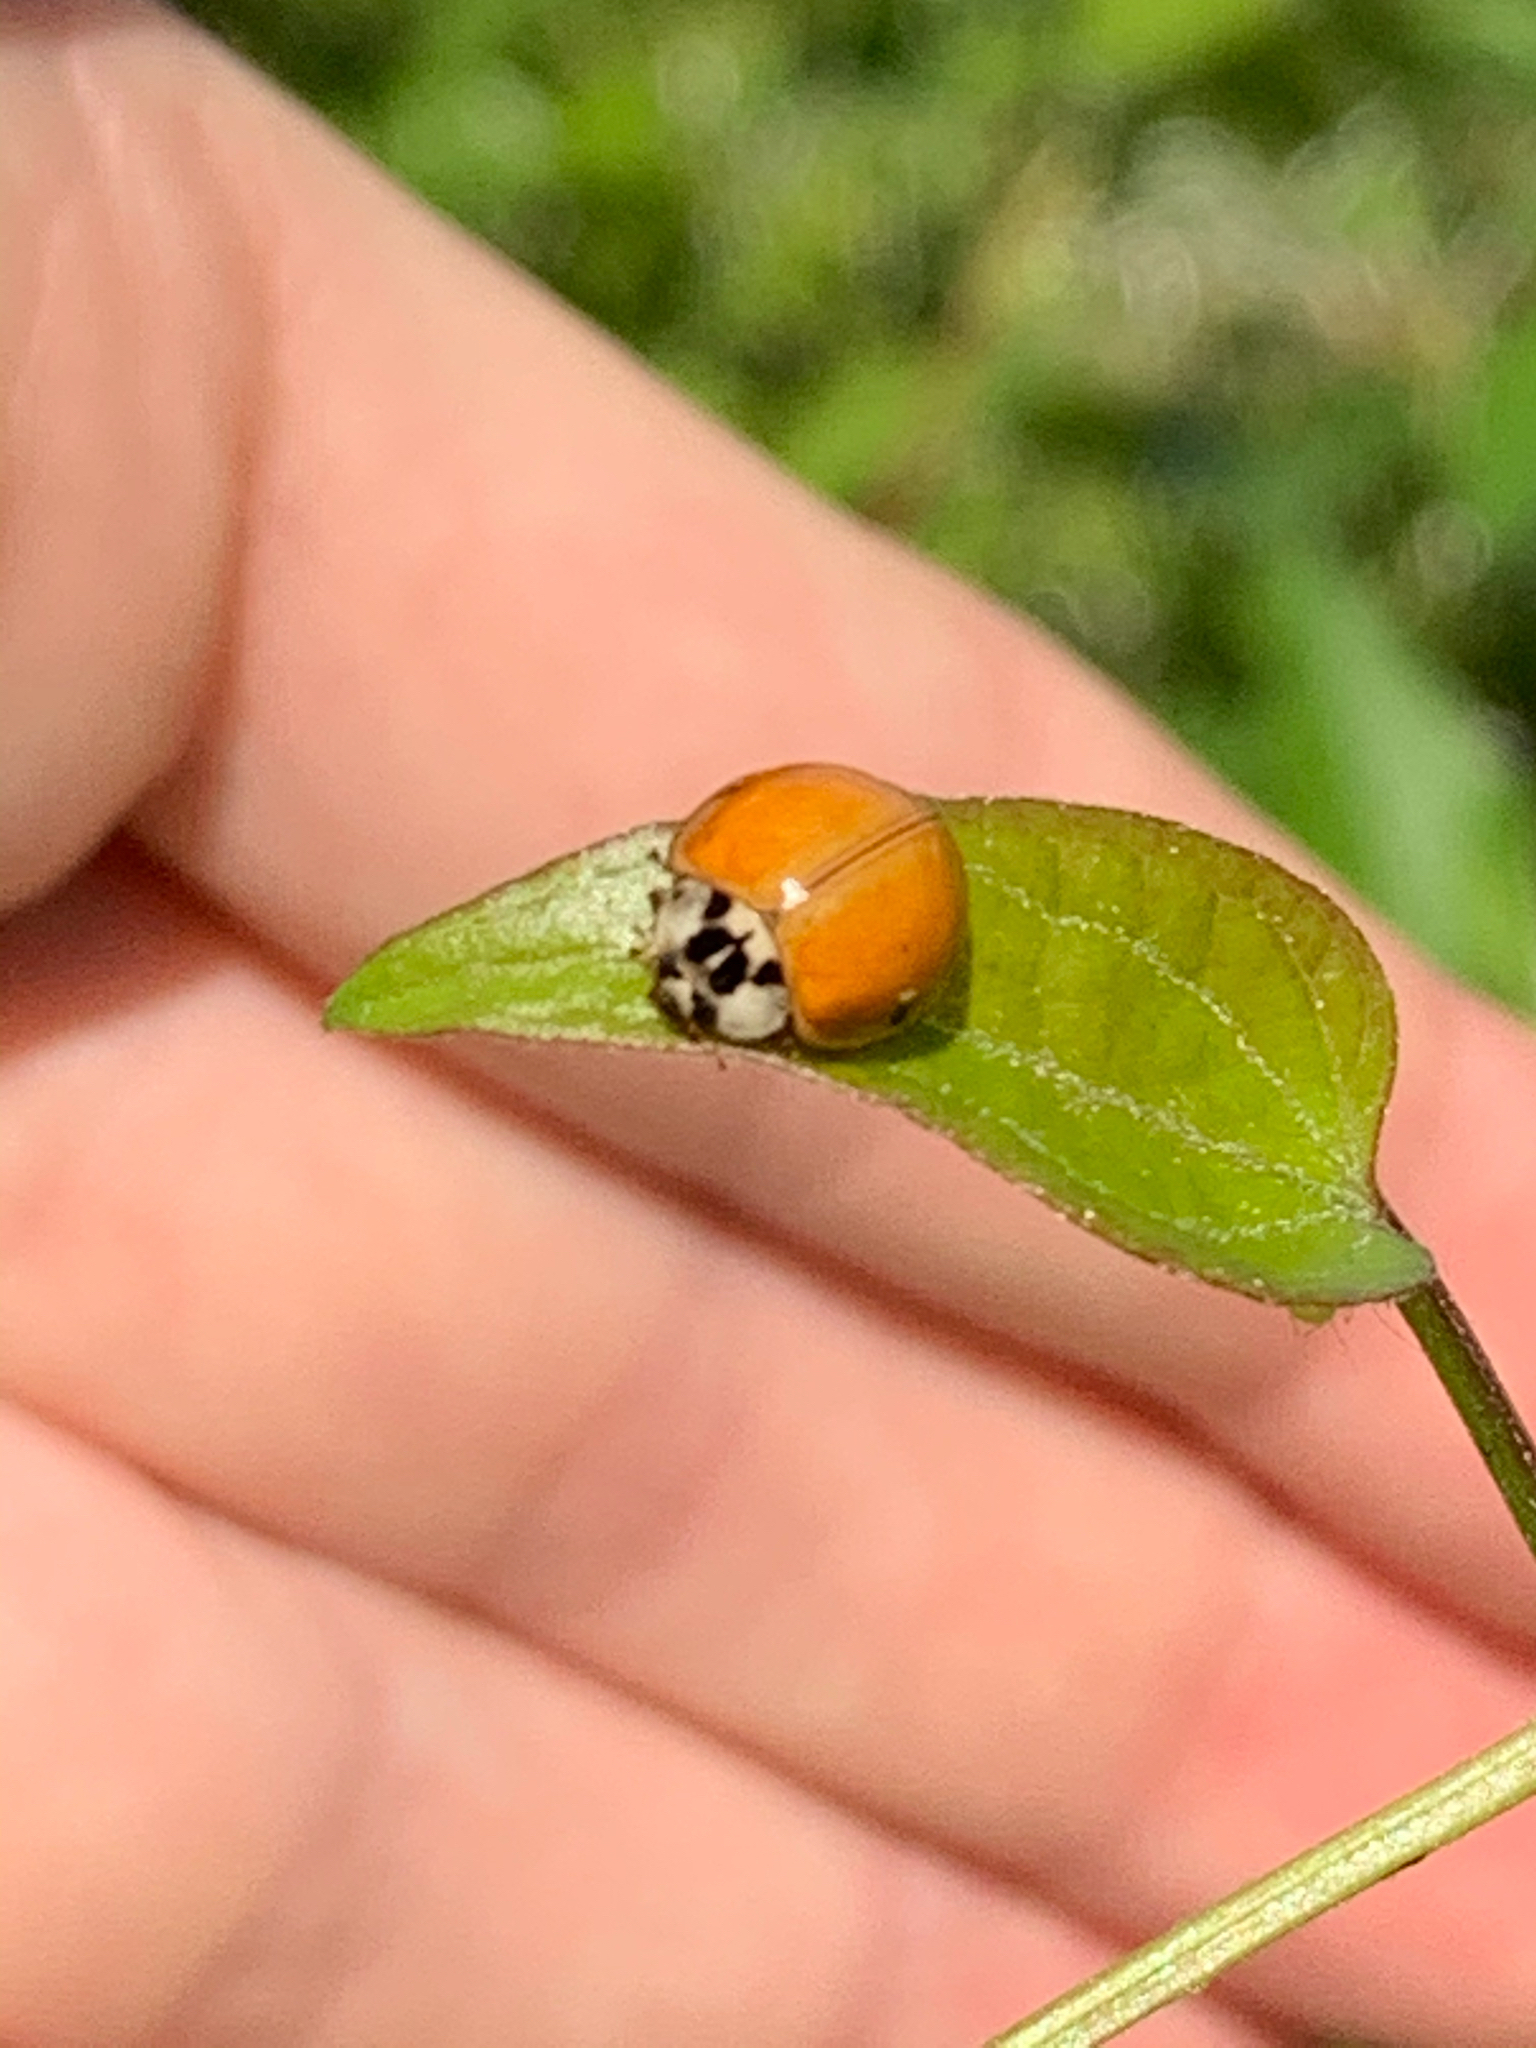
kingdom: Animalia
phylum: Arthropoda
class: Insecta
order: Coleoptera
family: Coccinellidae
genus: Harmonia
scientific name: Harmonia axyridis
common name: Harlequin ladybird
